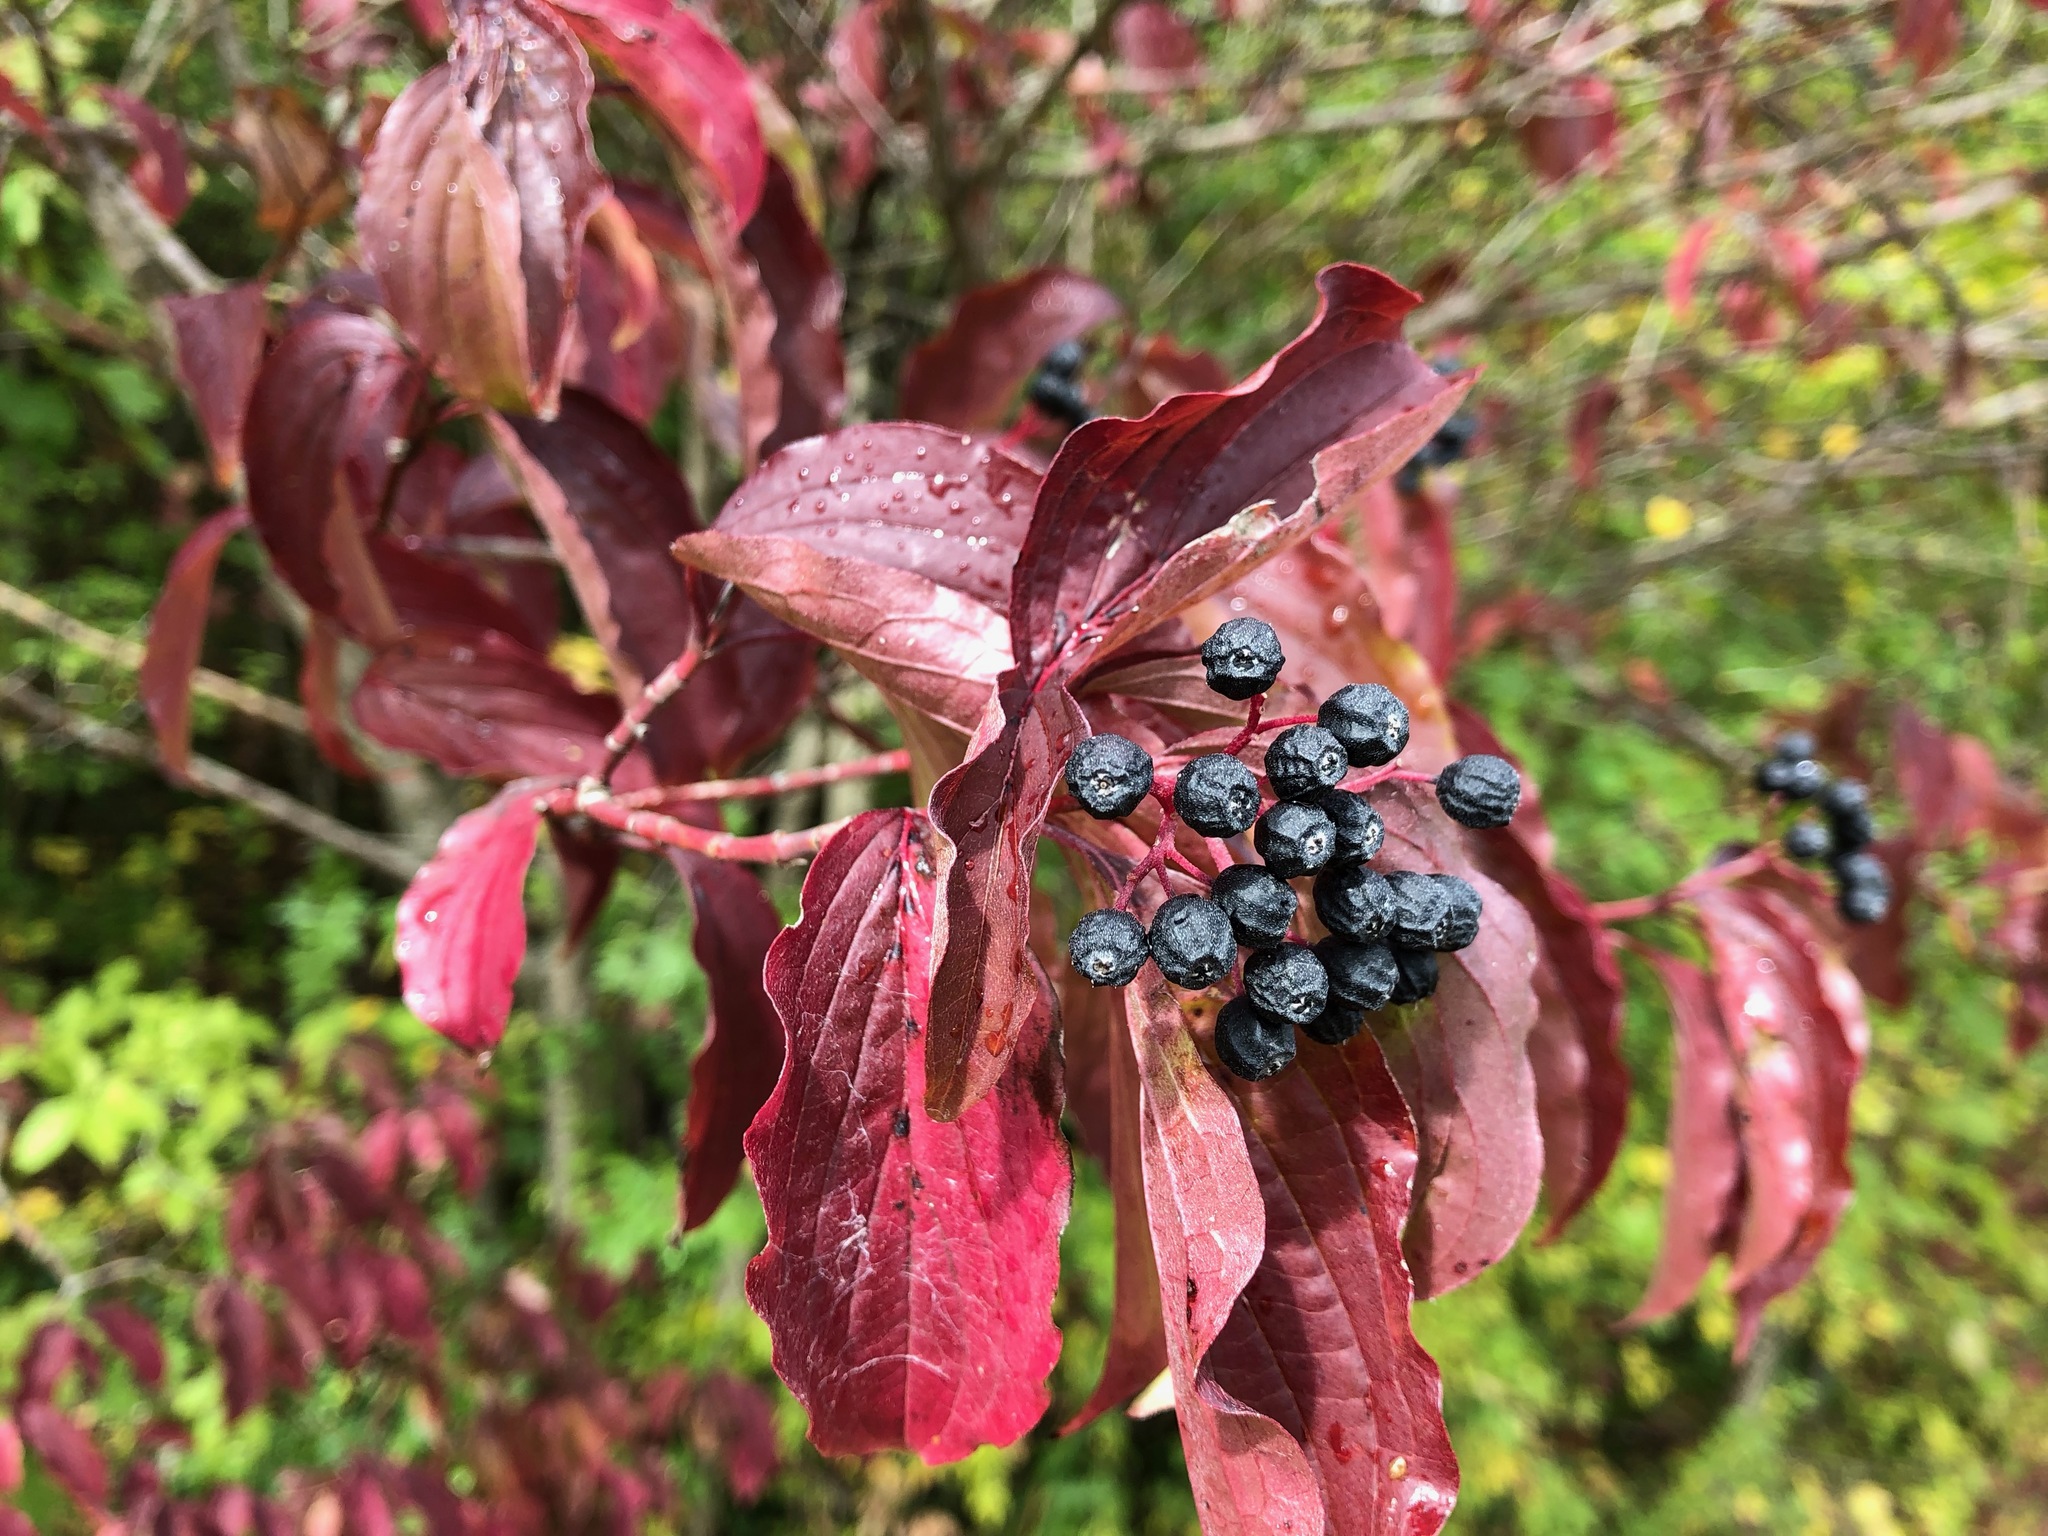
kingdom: Plantae
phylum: Tracheophyta
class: Magnoliopsida
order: Cornales
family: Cornaceae
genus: Cornus
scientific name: Cornus sanguinea
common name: Dogwood
